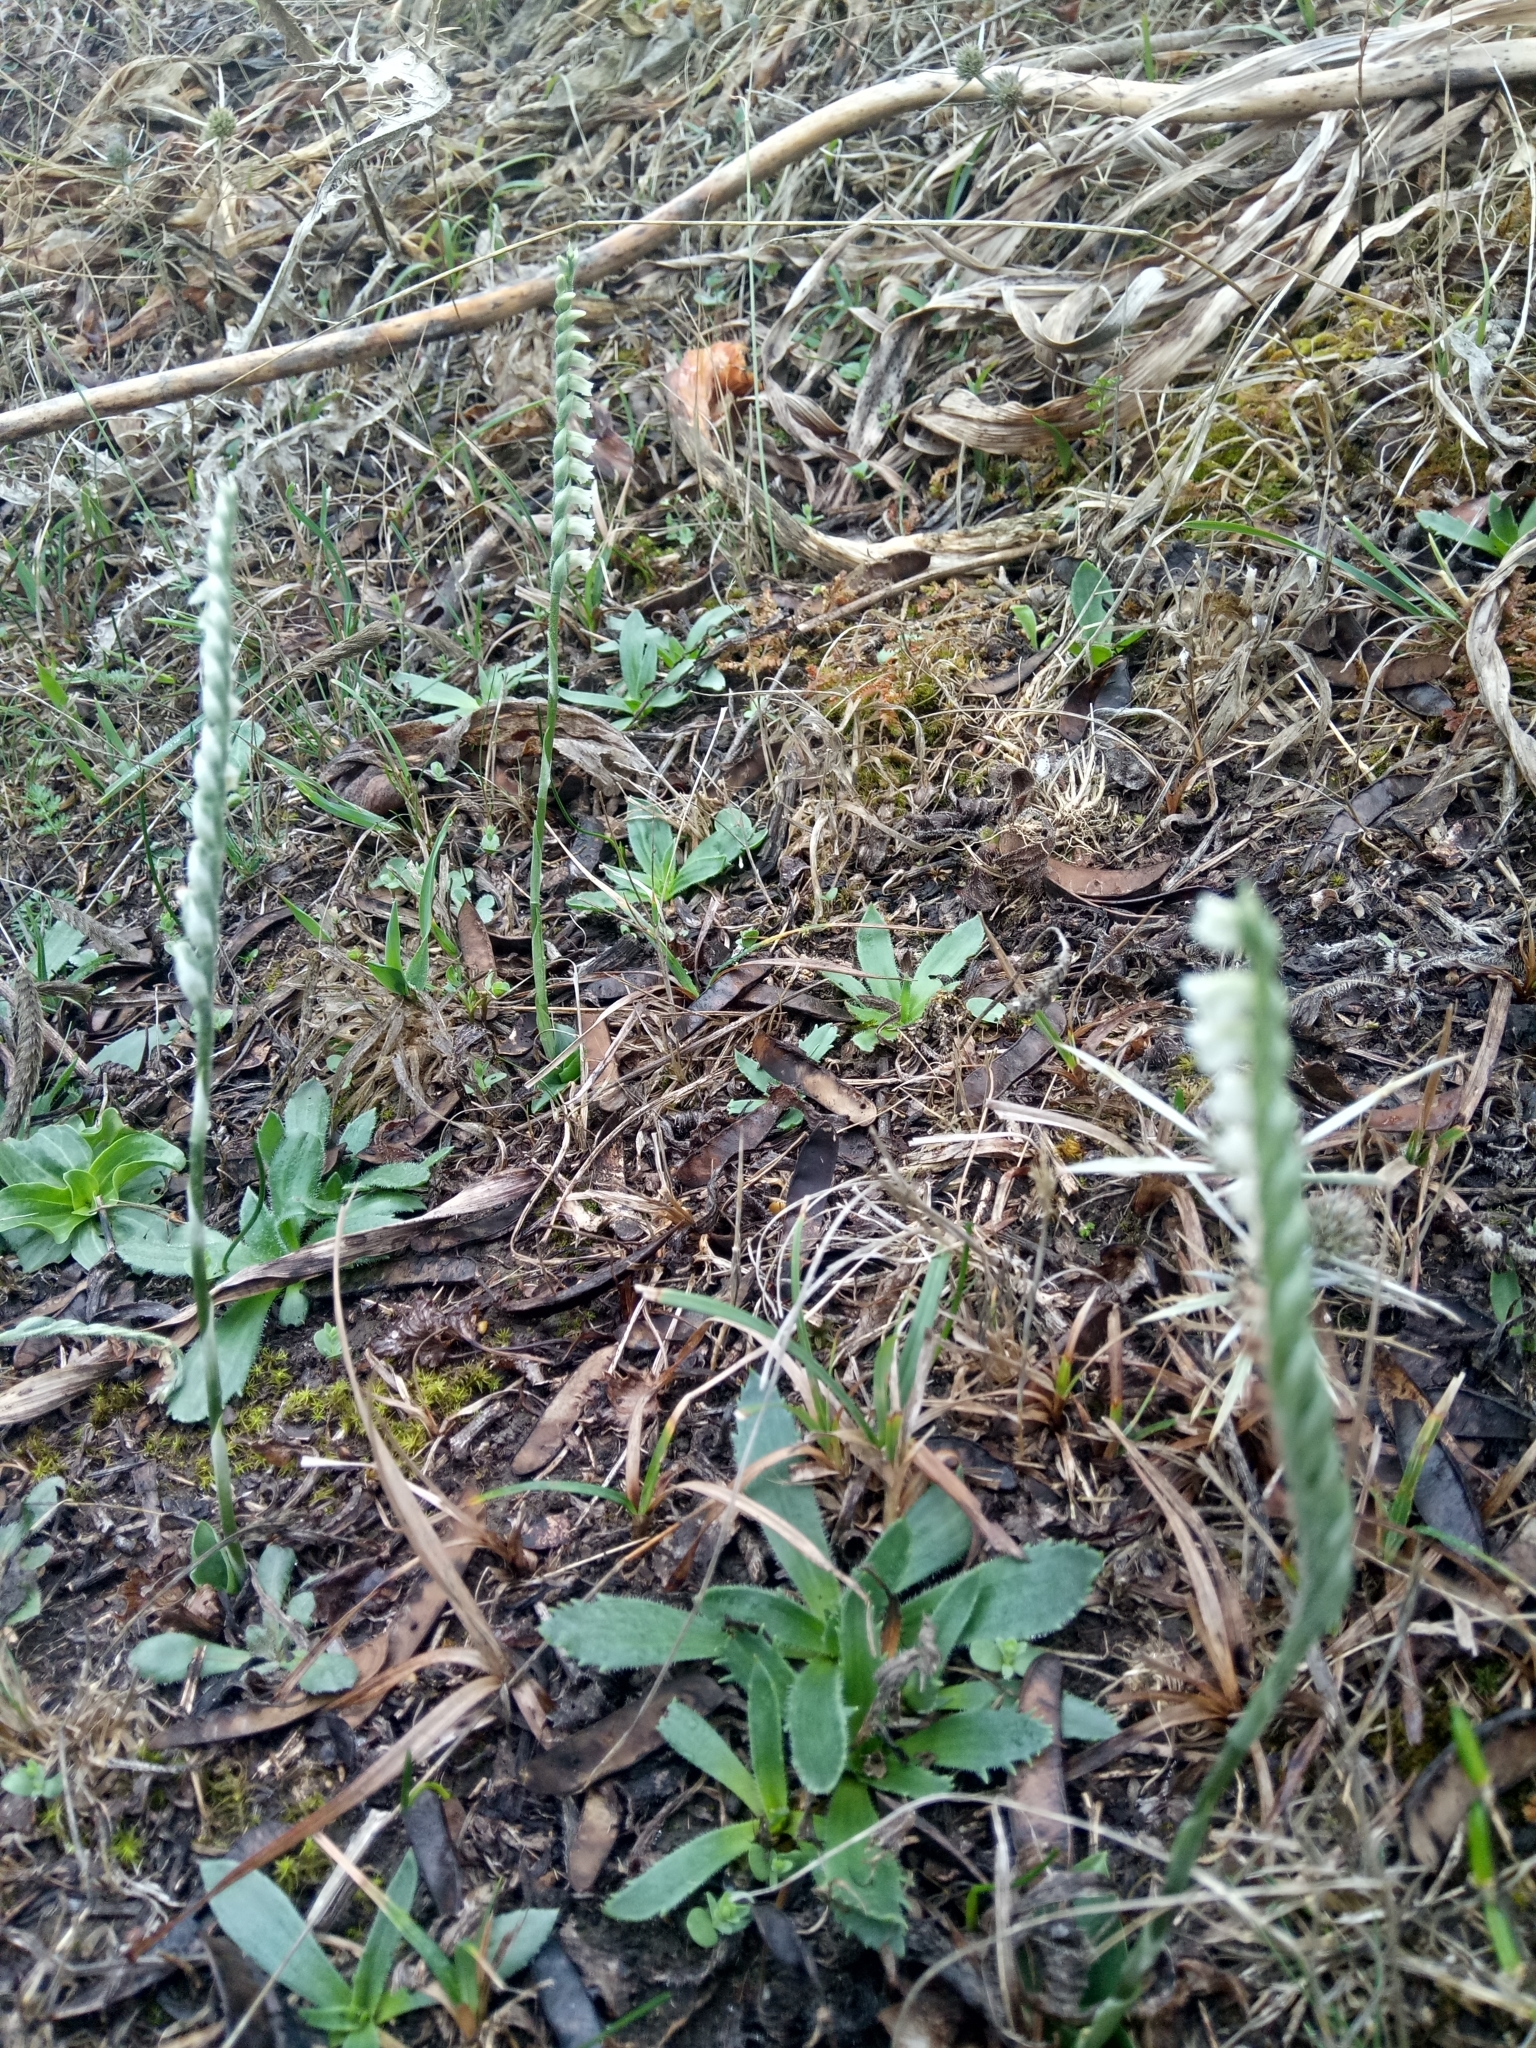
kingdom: Plantae
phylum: Tracheophyta
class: Liliopsida
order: Asparagales
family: Orchidaceae
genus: Spiranthes
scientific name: Spiranthes spiralis
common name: Autumn lady's-tresses
